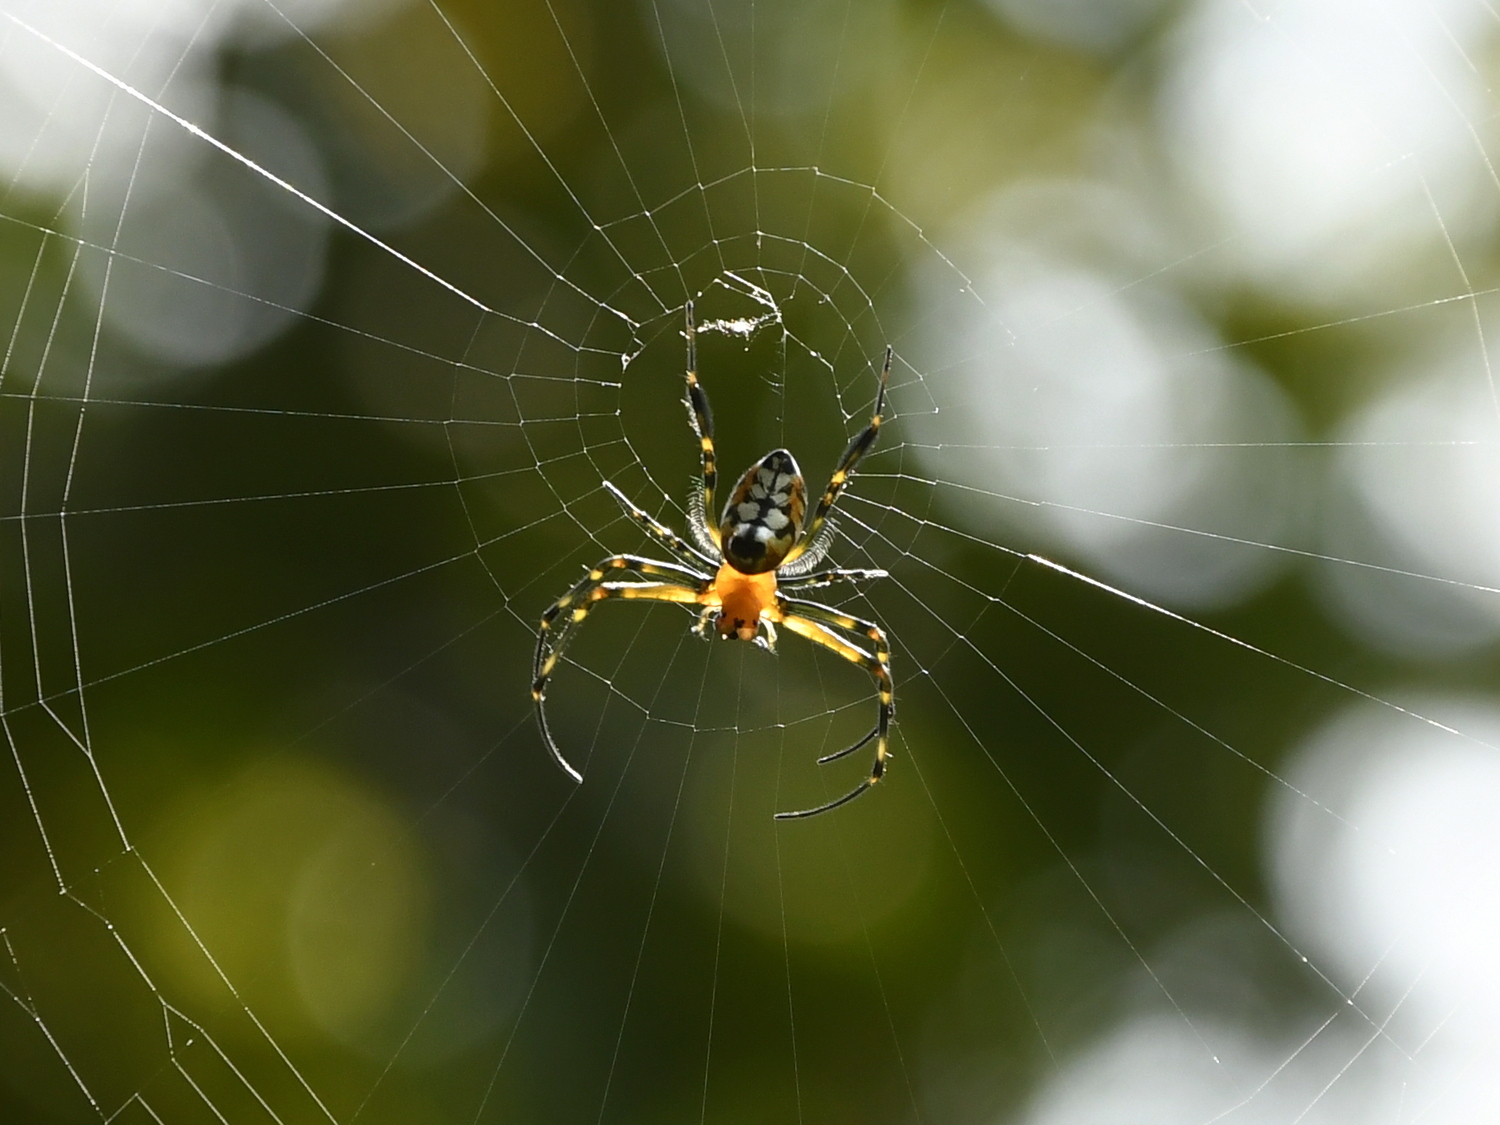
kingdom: Animalia
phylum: Arthropoda
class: Arachnida
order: Araneae
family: Tetragnathidae
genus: Leucauge
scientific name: Leucauge fastigata
